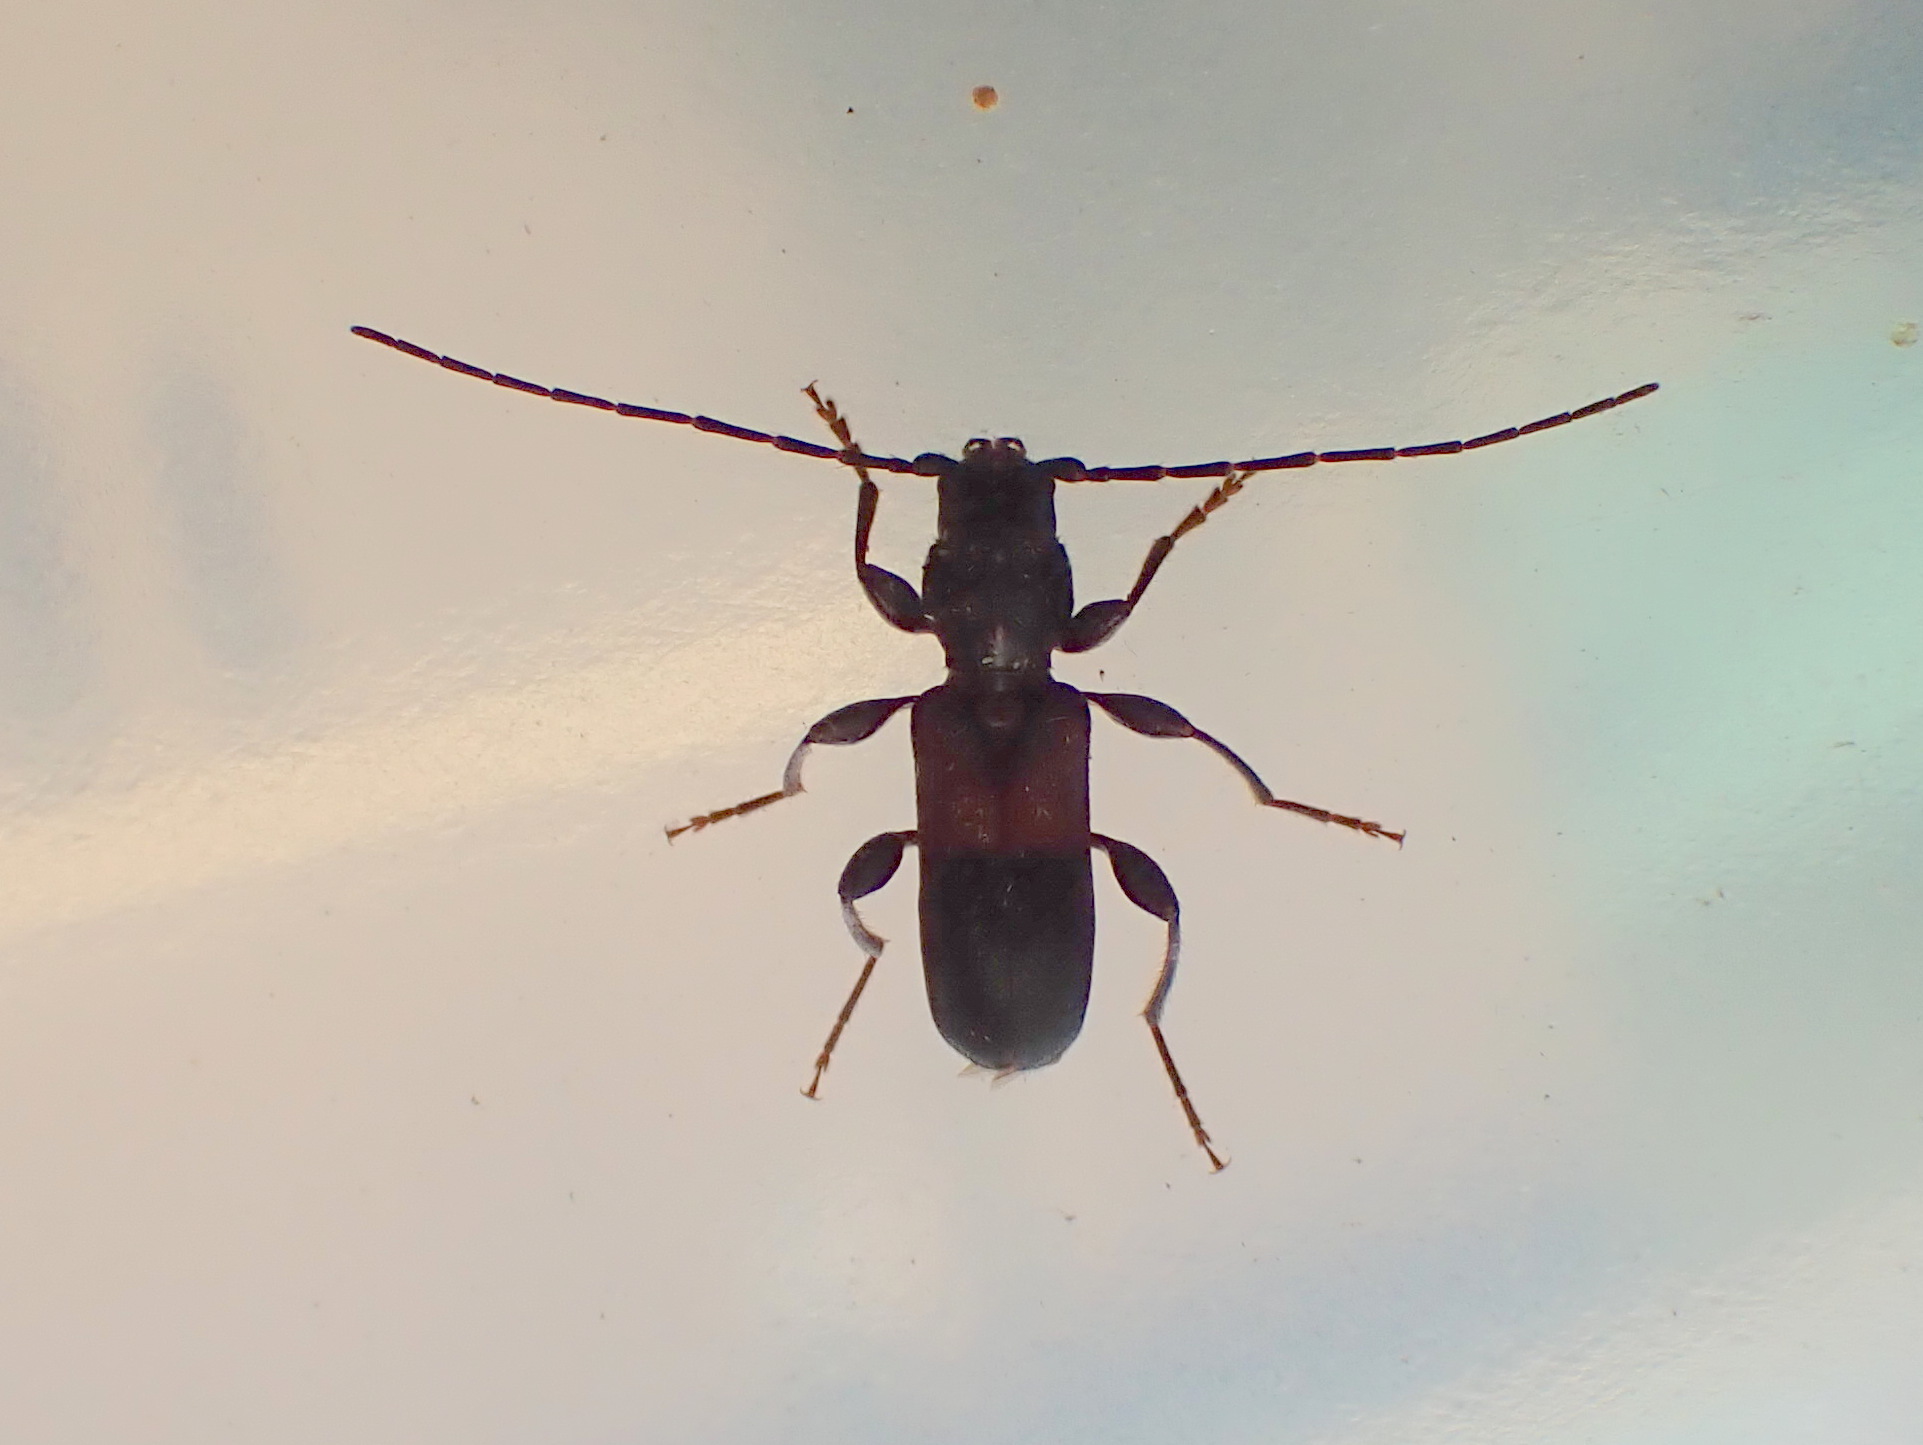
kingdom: Animalia
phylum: Arthropoda
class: Insecta
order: Coleoptera
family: Cerambycidae
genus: Phymatodes
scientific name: Phymatodes dimidiatus
